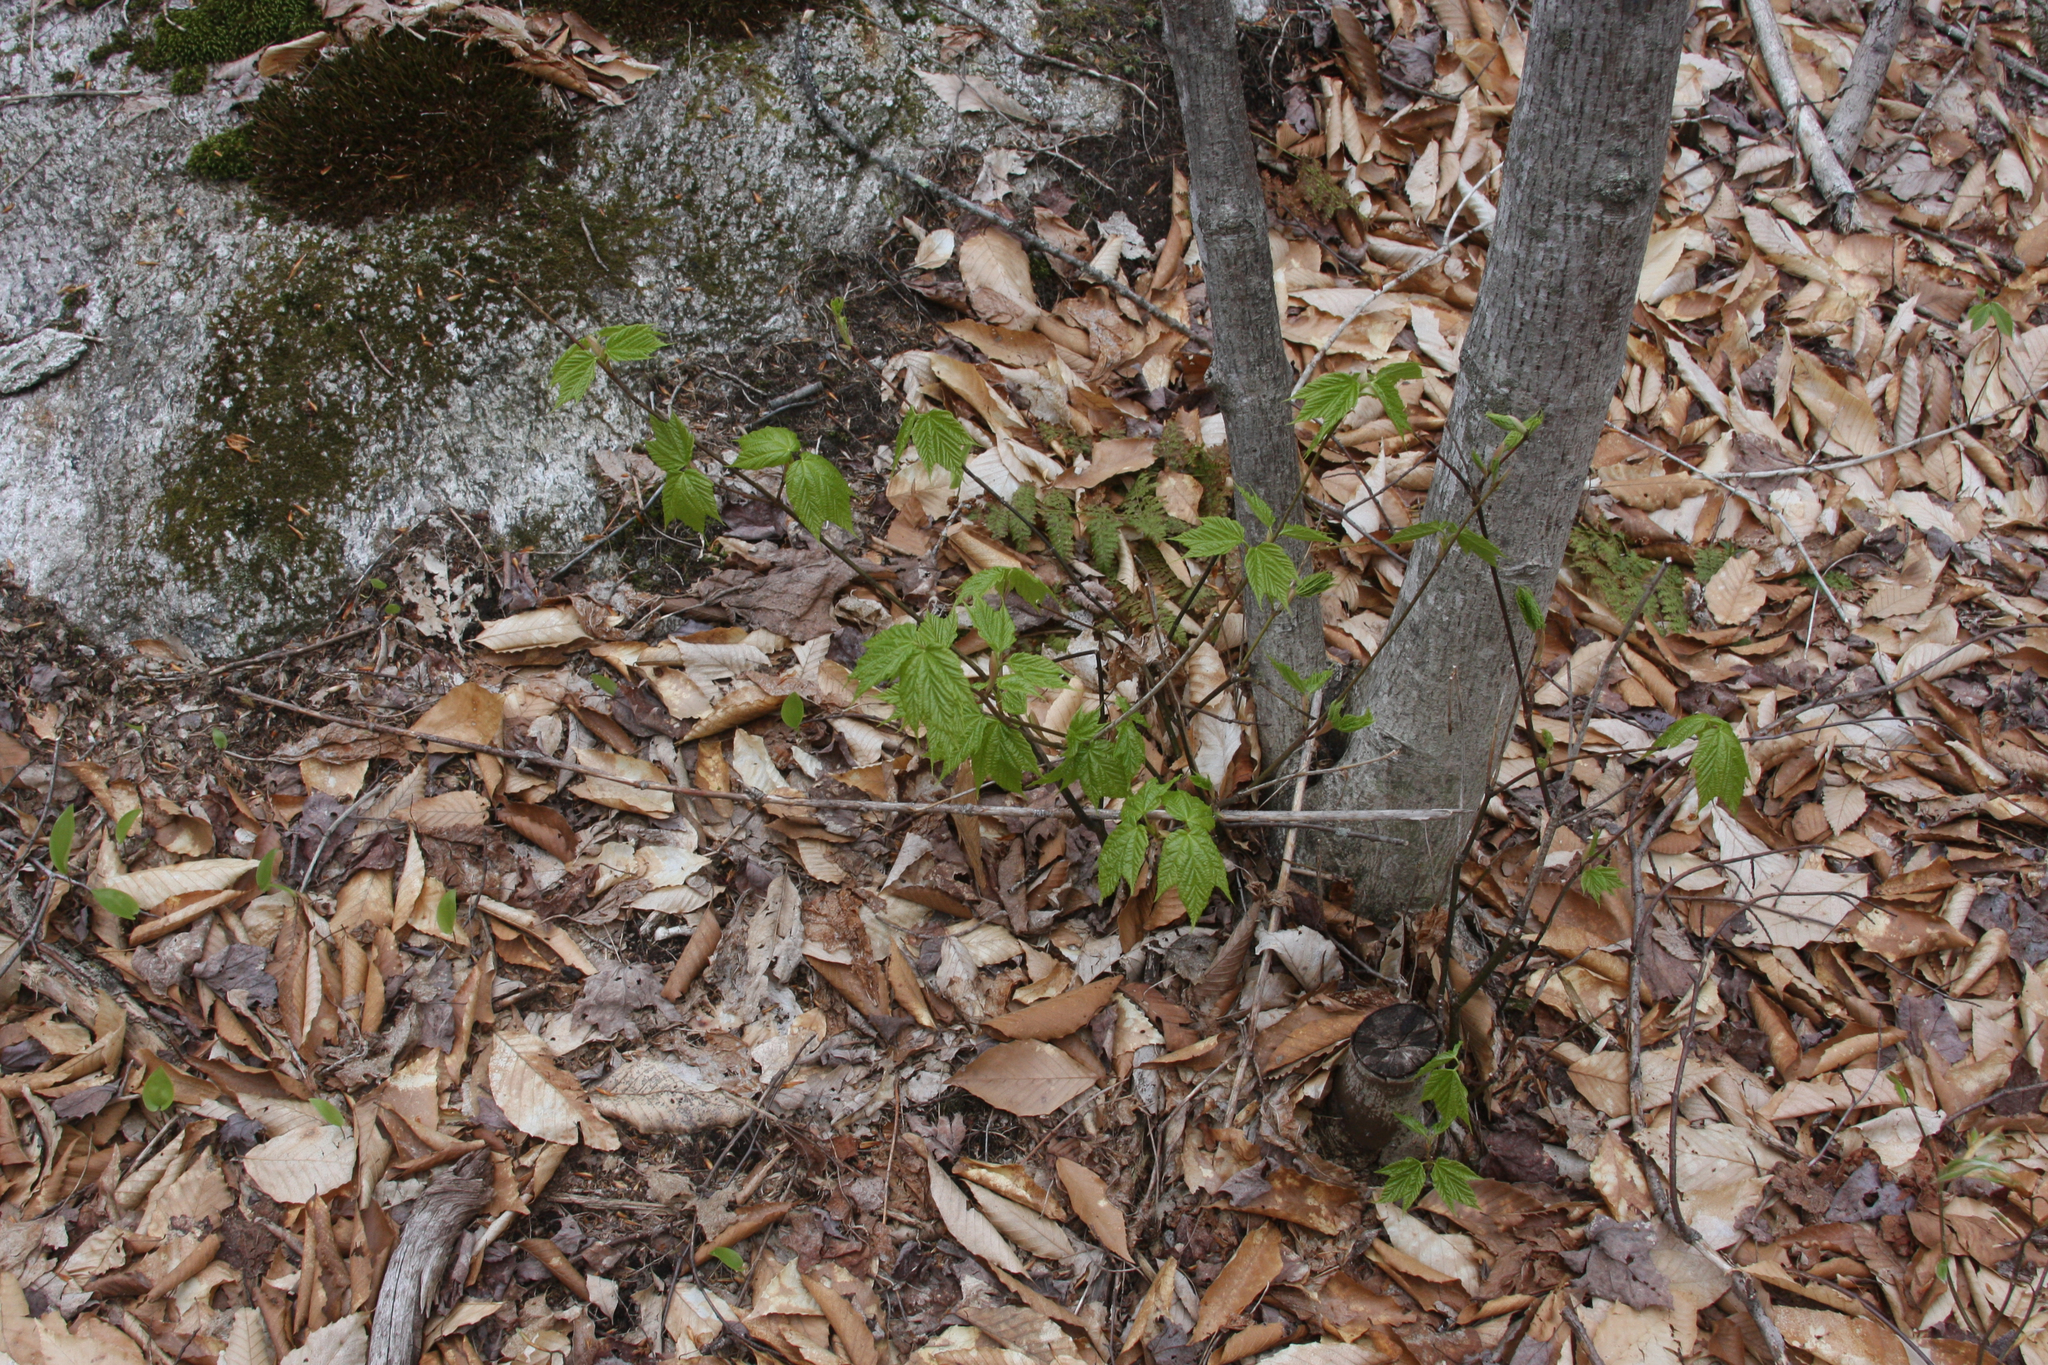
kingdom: Plantae
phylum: Tracheophyta
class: Magnoliopsida
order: Sapindales
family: Sapindaceae
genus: Acer
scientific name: Acer pensylvanicum
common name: Moosewood
